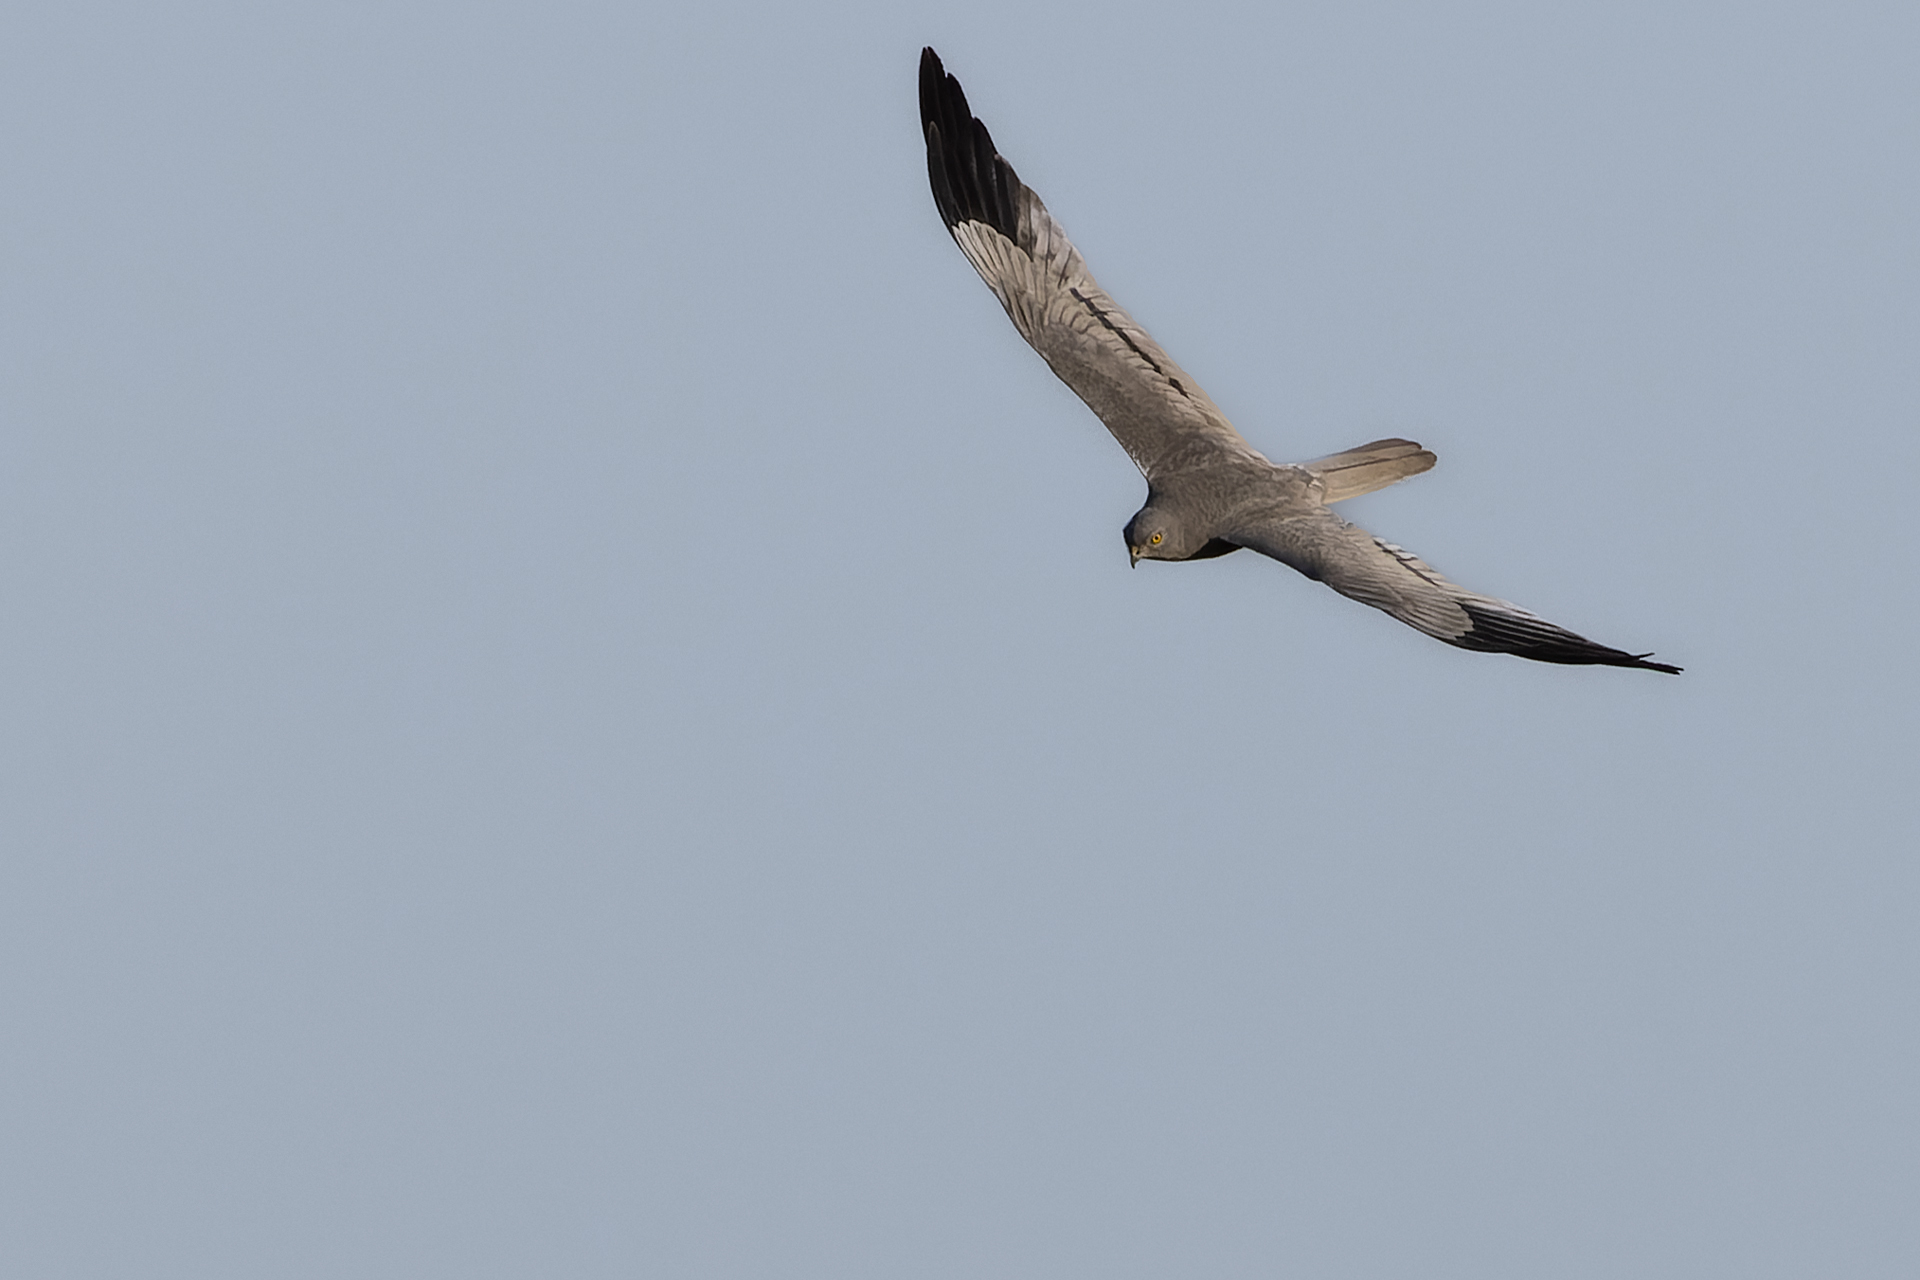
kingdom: Animalia
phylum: Chordata
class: Aves
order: Accipitriformes
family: Accipitridae
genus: Circus
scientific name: Circus pygargus
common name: Montagu's harrier
